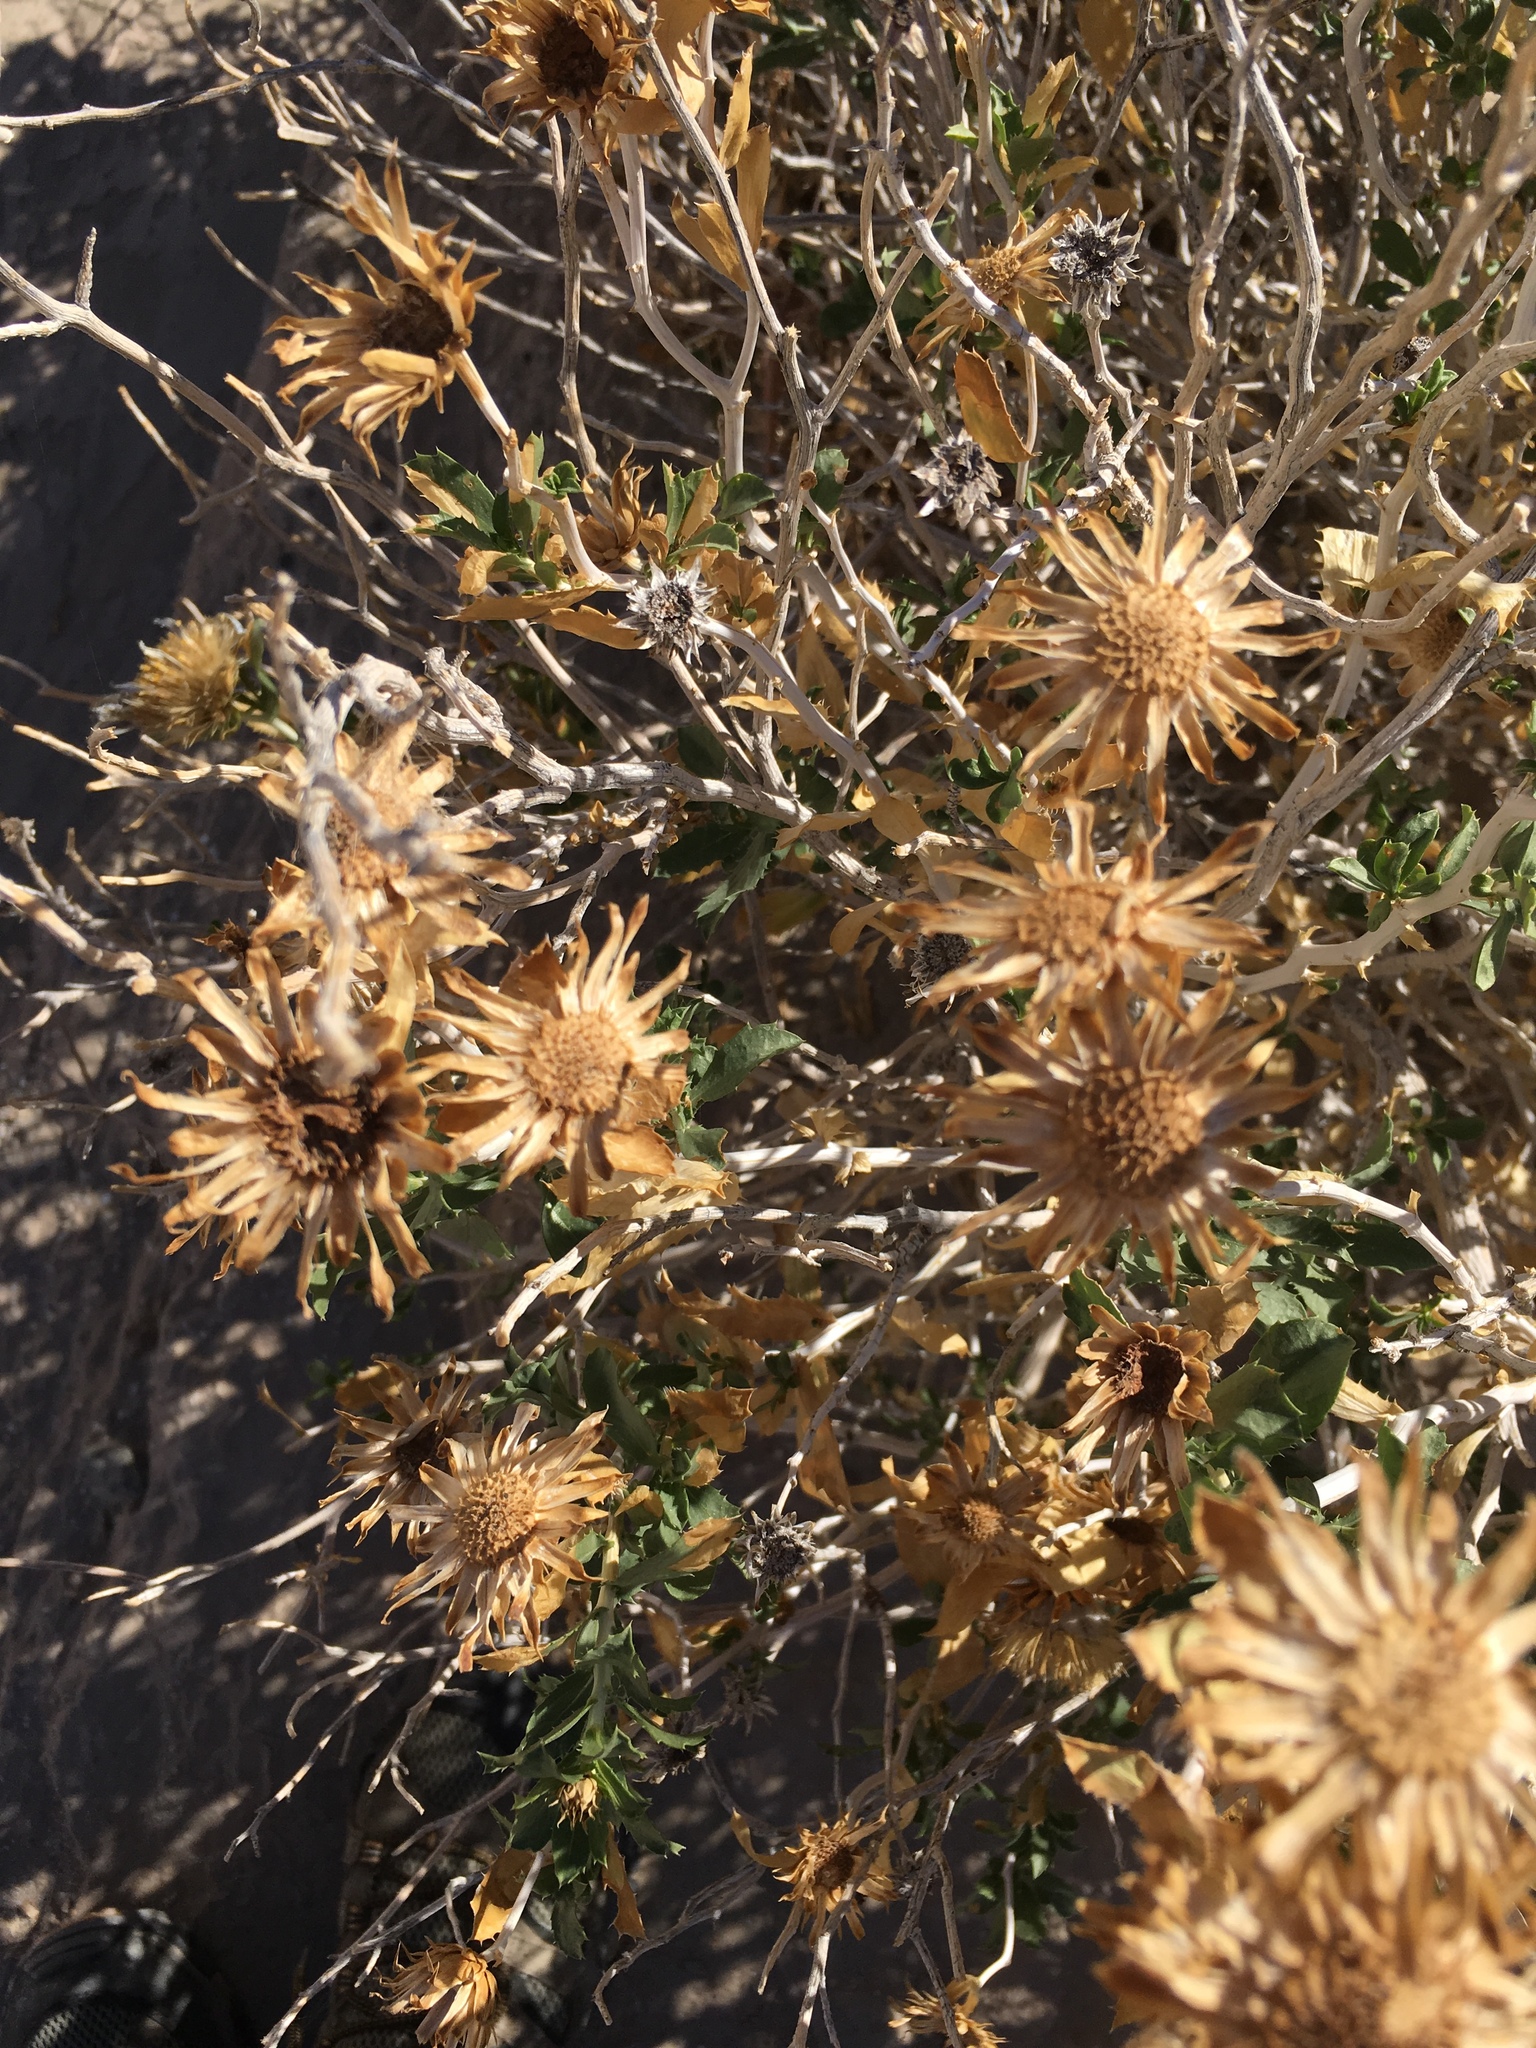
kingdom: Plantae
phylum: Tracheophyta
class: Magnoliopsida
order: Asterales
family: Asteraceae
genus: Xylorhiza
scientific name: Xylorhiza orcuttii
